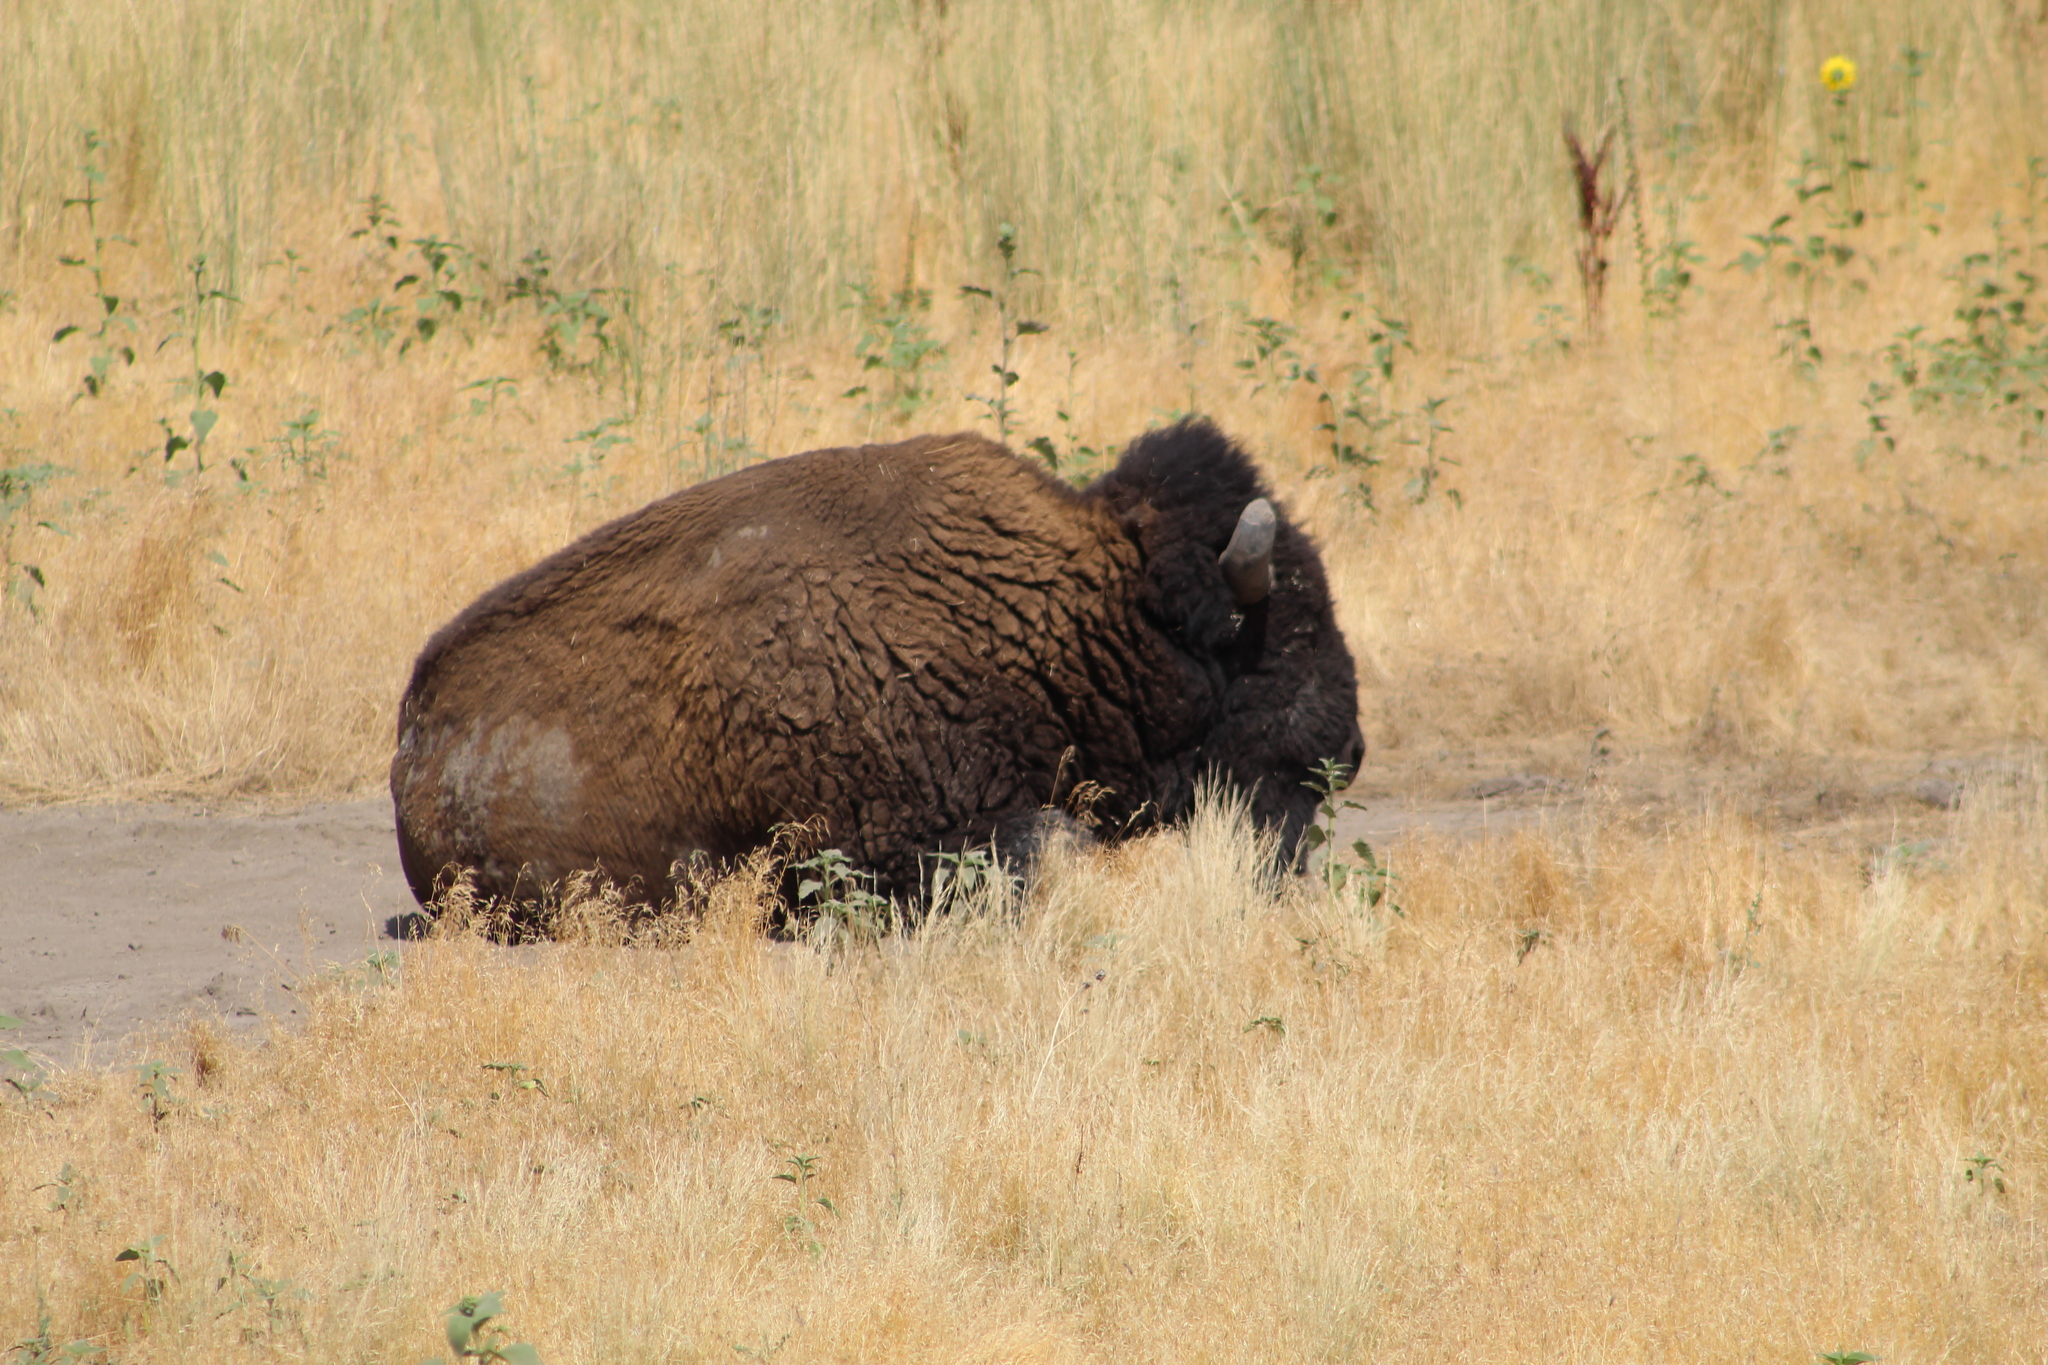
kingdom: Animalia
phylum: Chordata
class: Mammalia
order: Artiodactyla
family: Bovidae
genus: Bison
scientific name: Bison bison
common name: American bison
